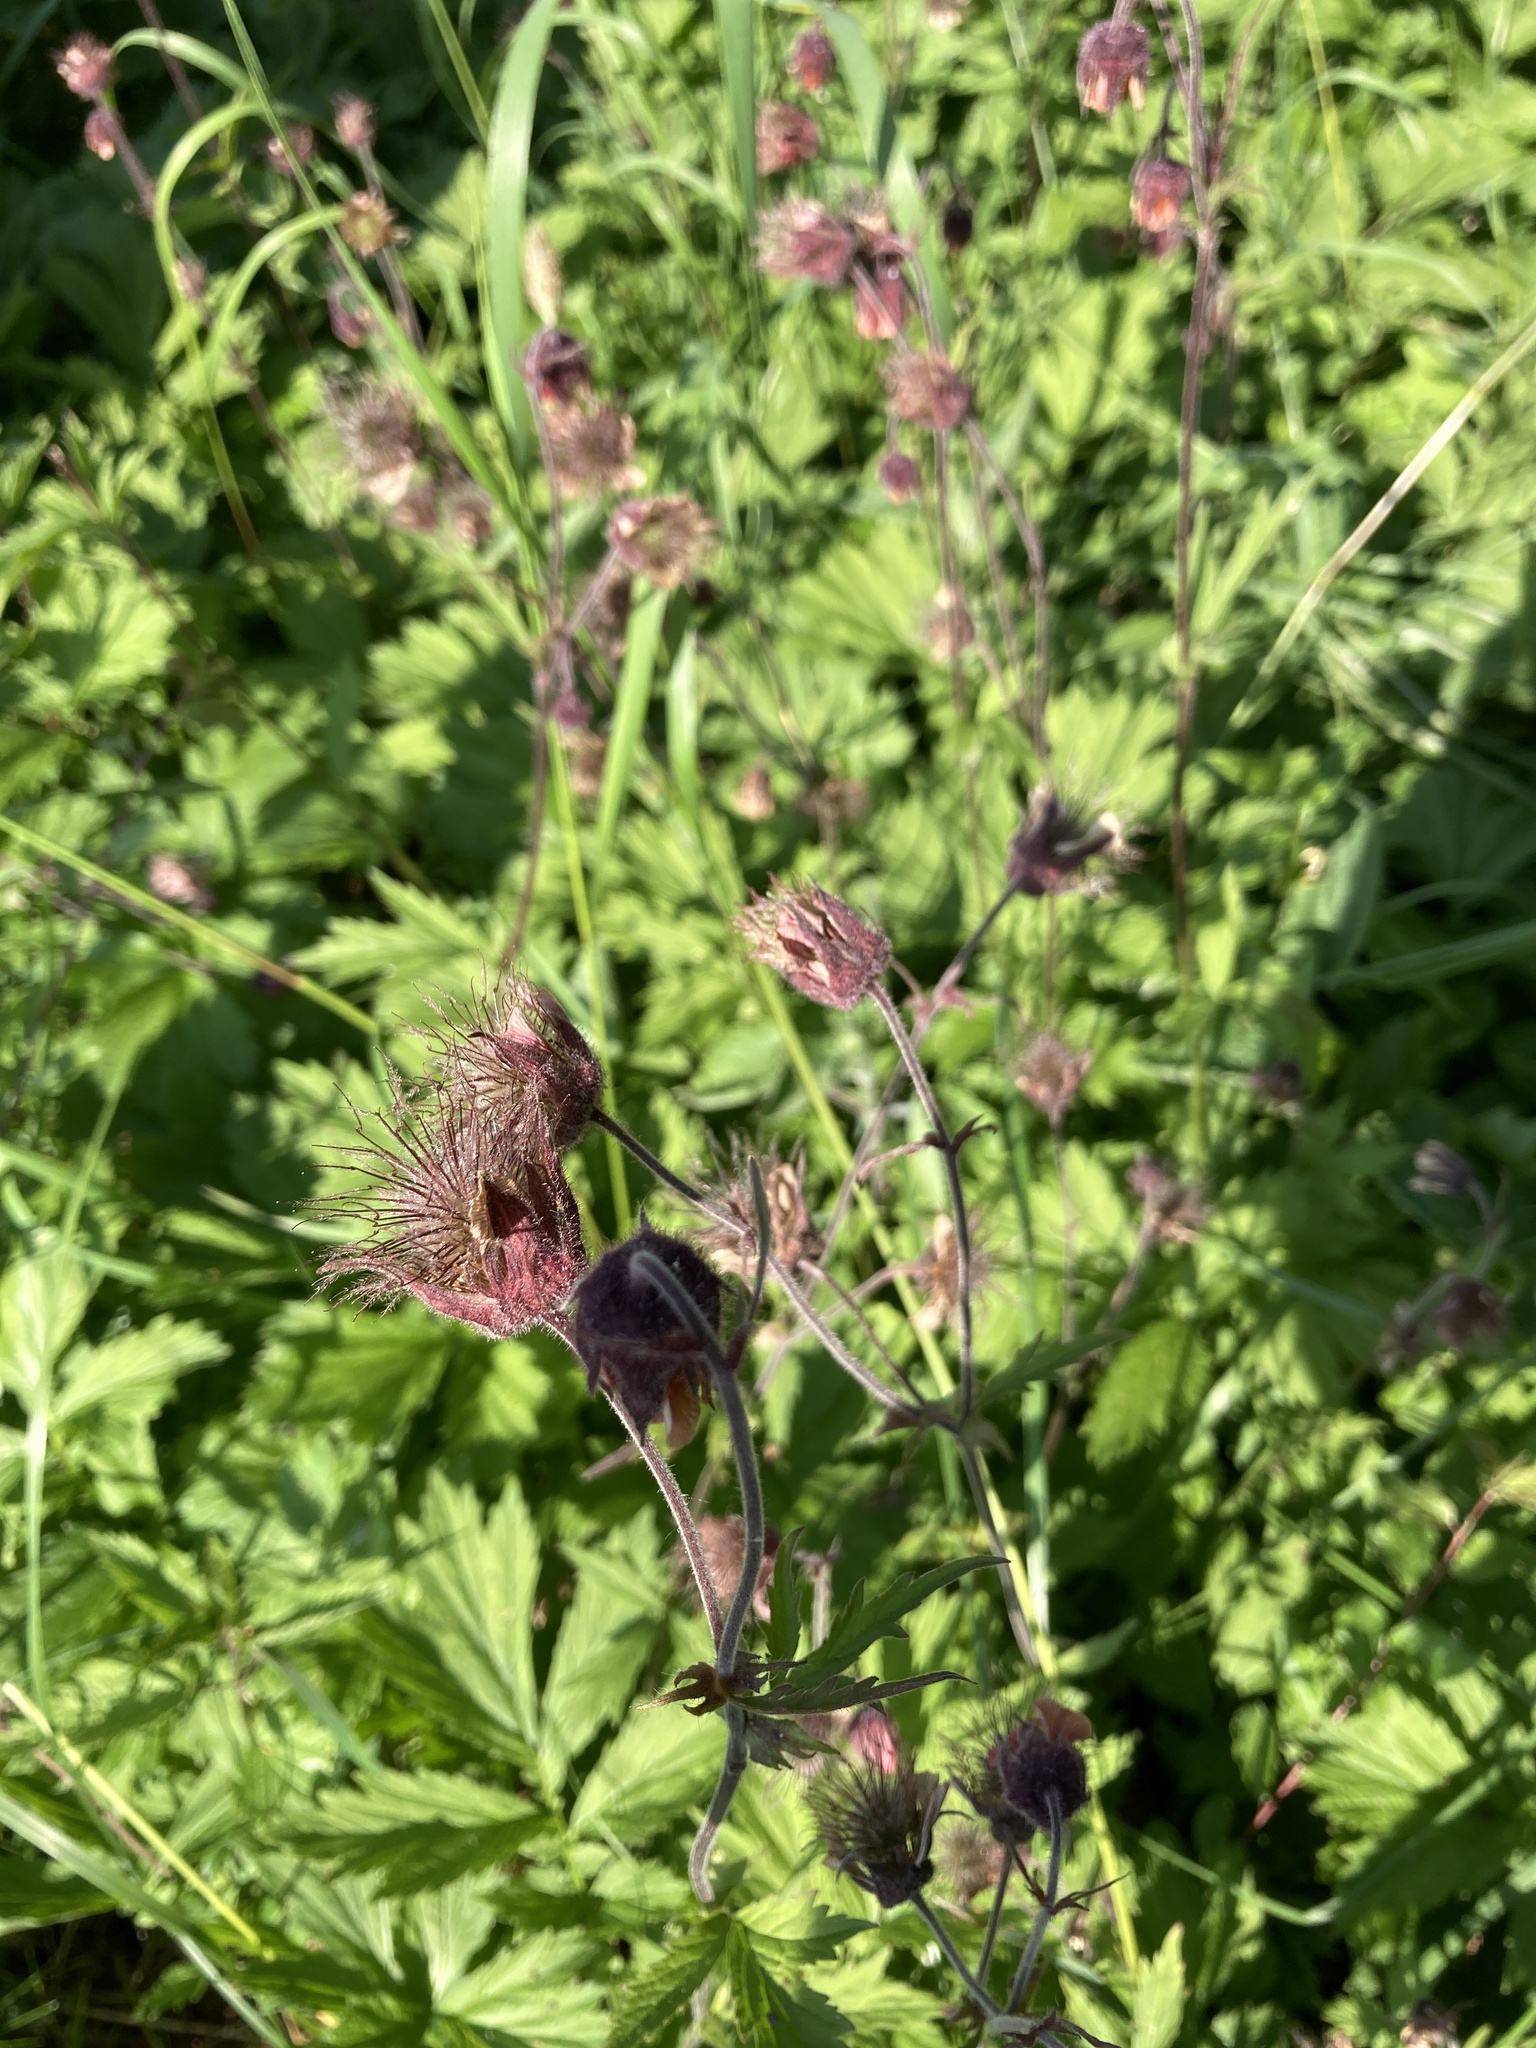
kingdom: Plantae
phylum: Tracheophyta
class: Magnoliopsida
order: Rosales
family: Rosaceae
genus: Geum
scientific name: Geum rivale
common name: Water avens
